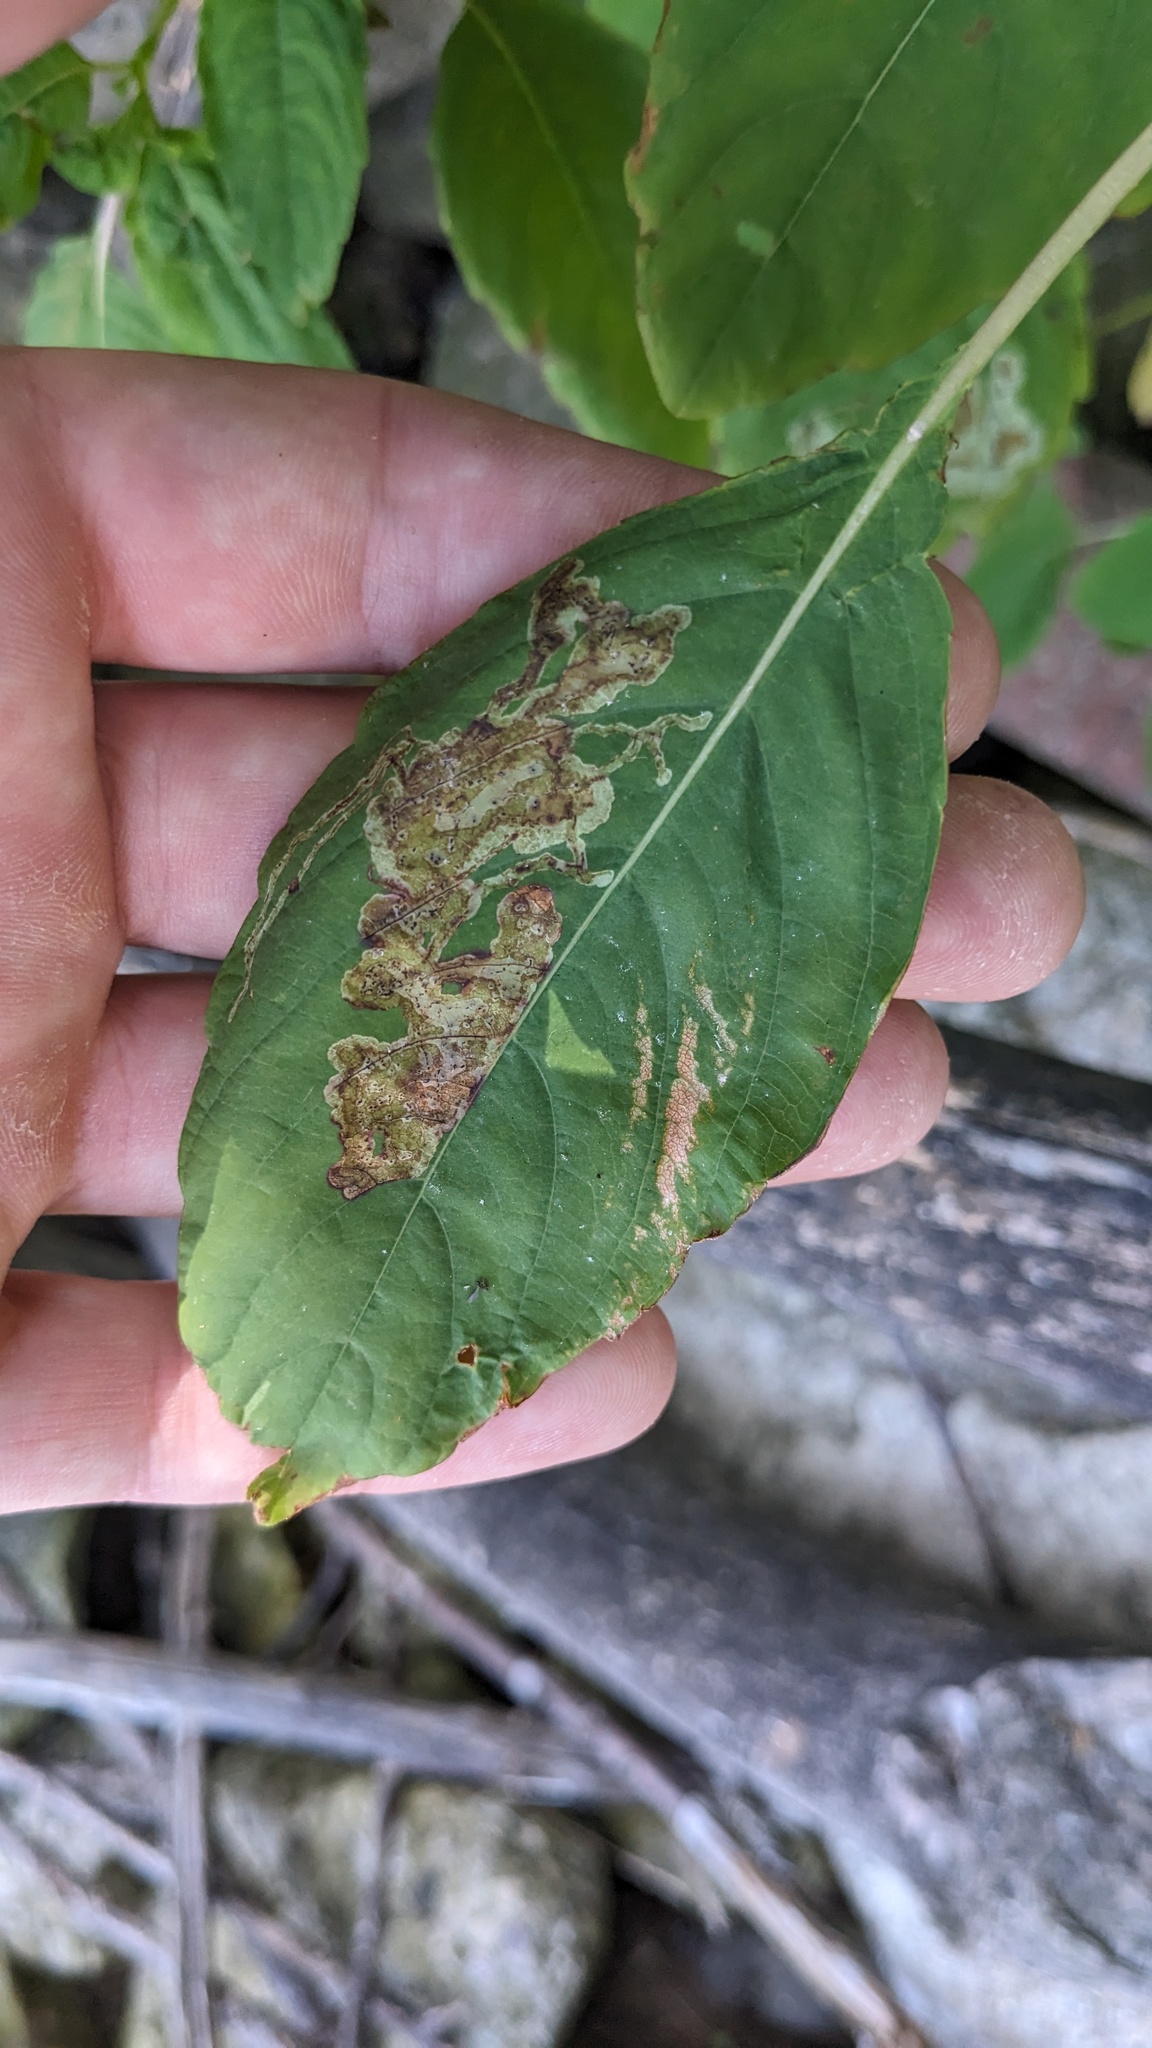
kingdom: Animalia
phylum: Arthropoda
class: Insecta
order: Diptera
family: Agromyzidae
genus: Phytoliriomyza
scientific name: Phytoliriomyza melampyga
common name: Jewelweed leaf-miner fly
